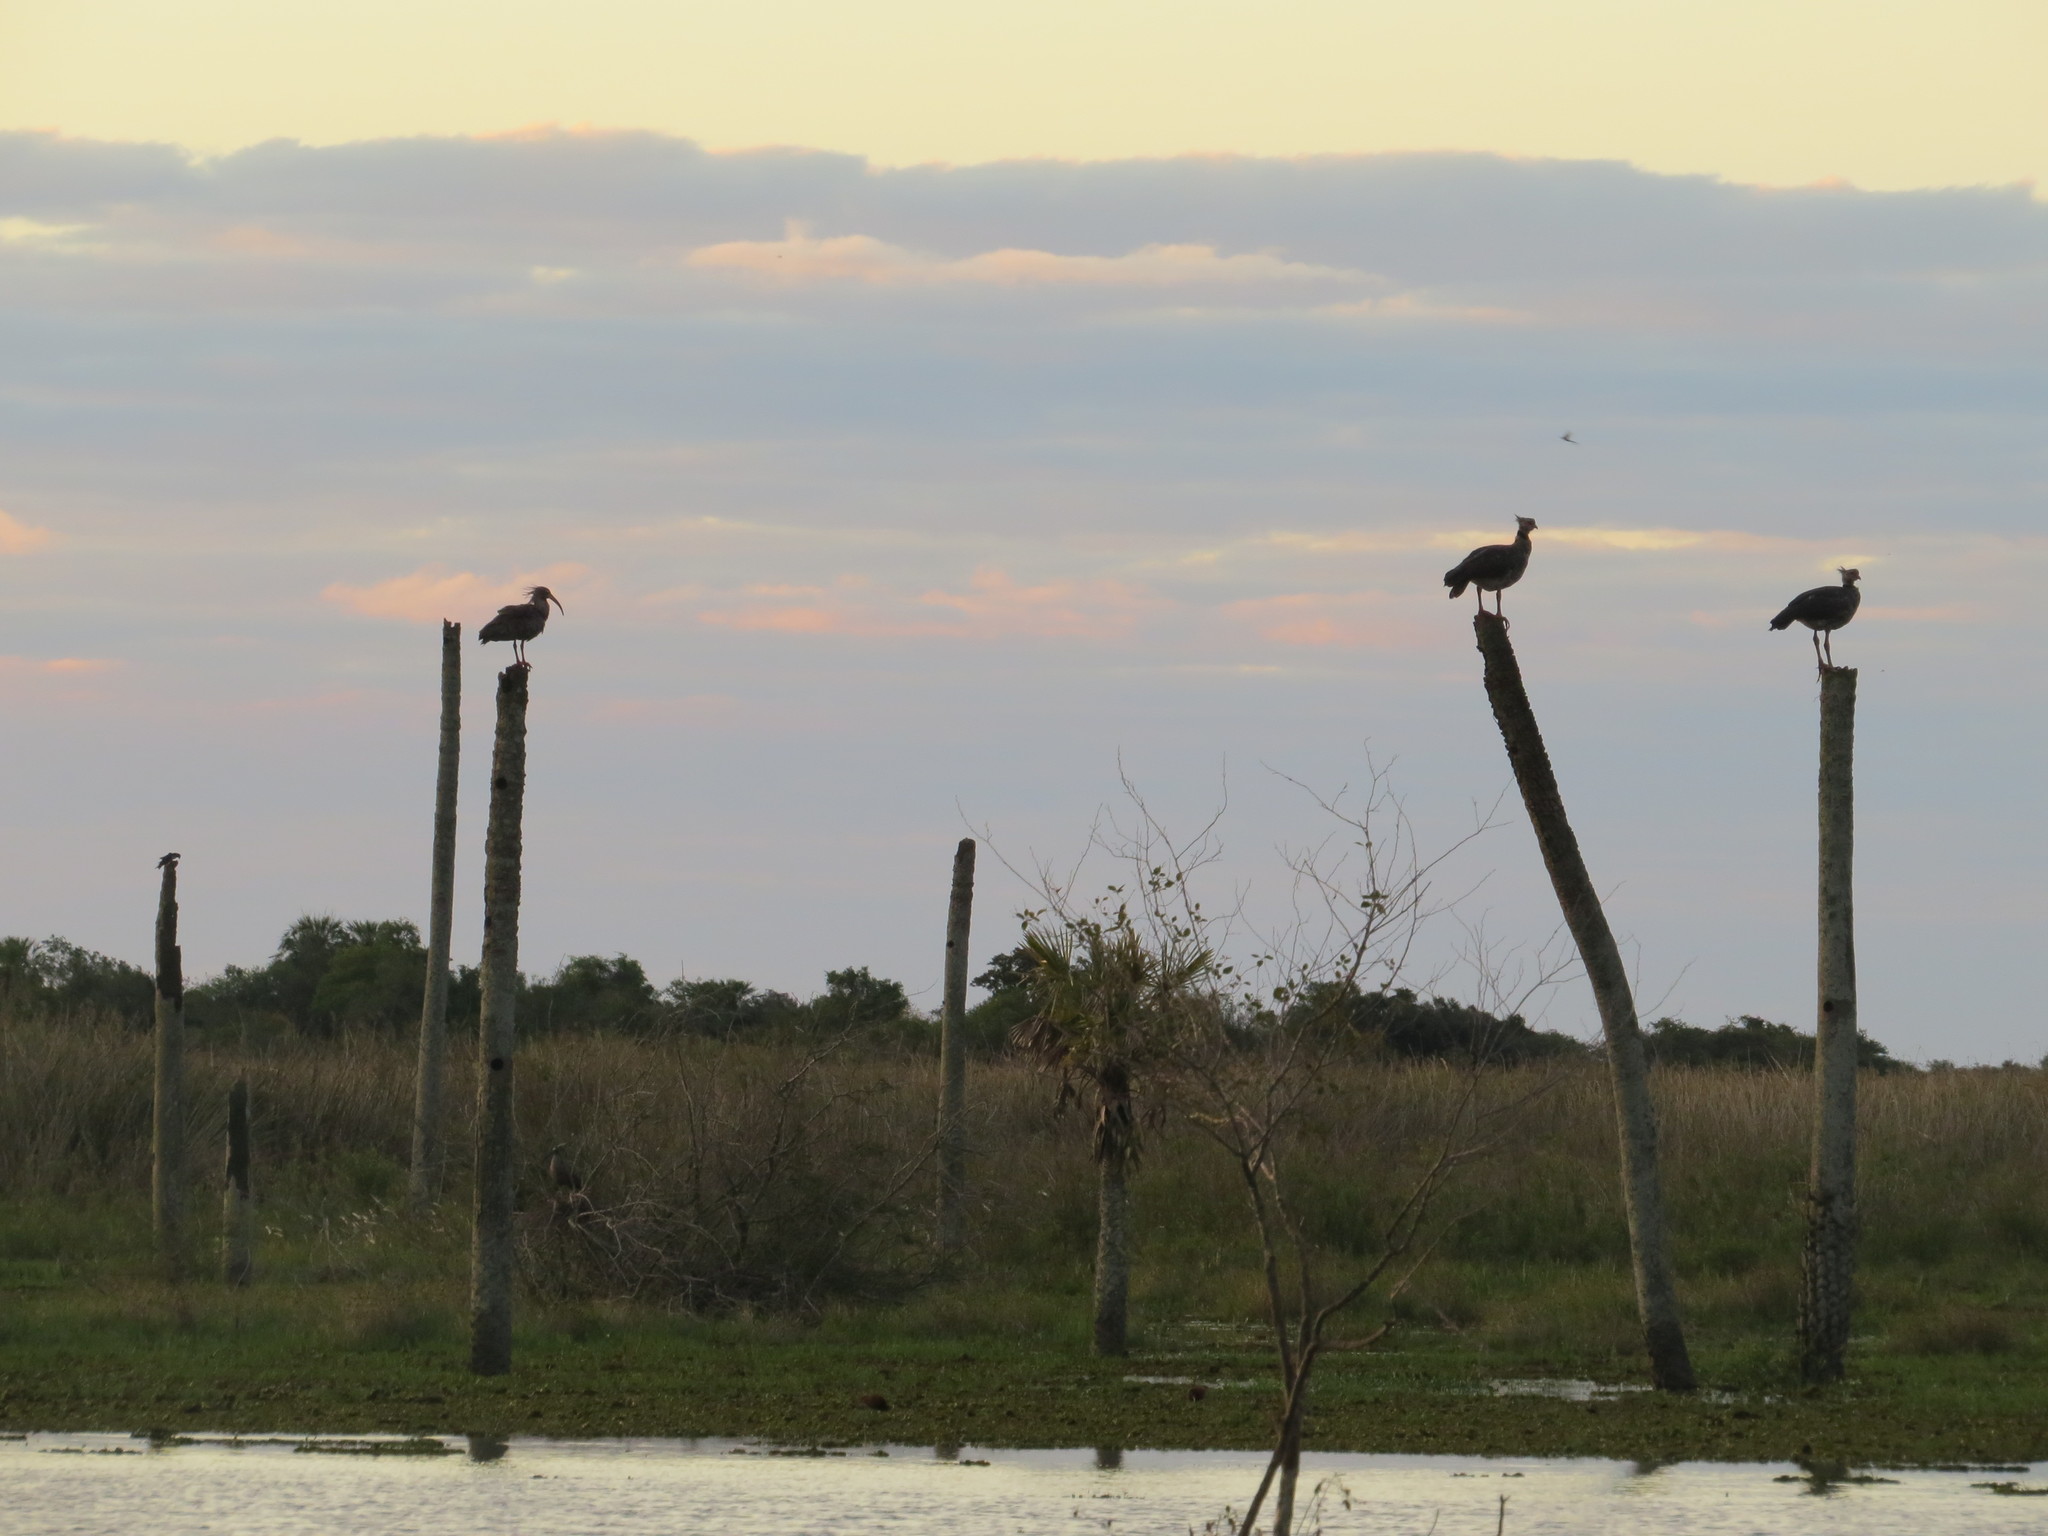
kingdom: Animalia
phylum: Chordata
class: Aves
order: Pelecaniformes
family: Threskiornithidae
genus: Theristicus
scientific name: Theristicus caerulescens
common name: Plumbeous ibis
